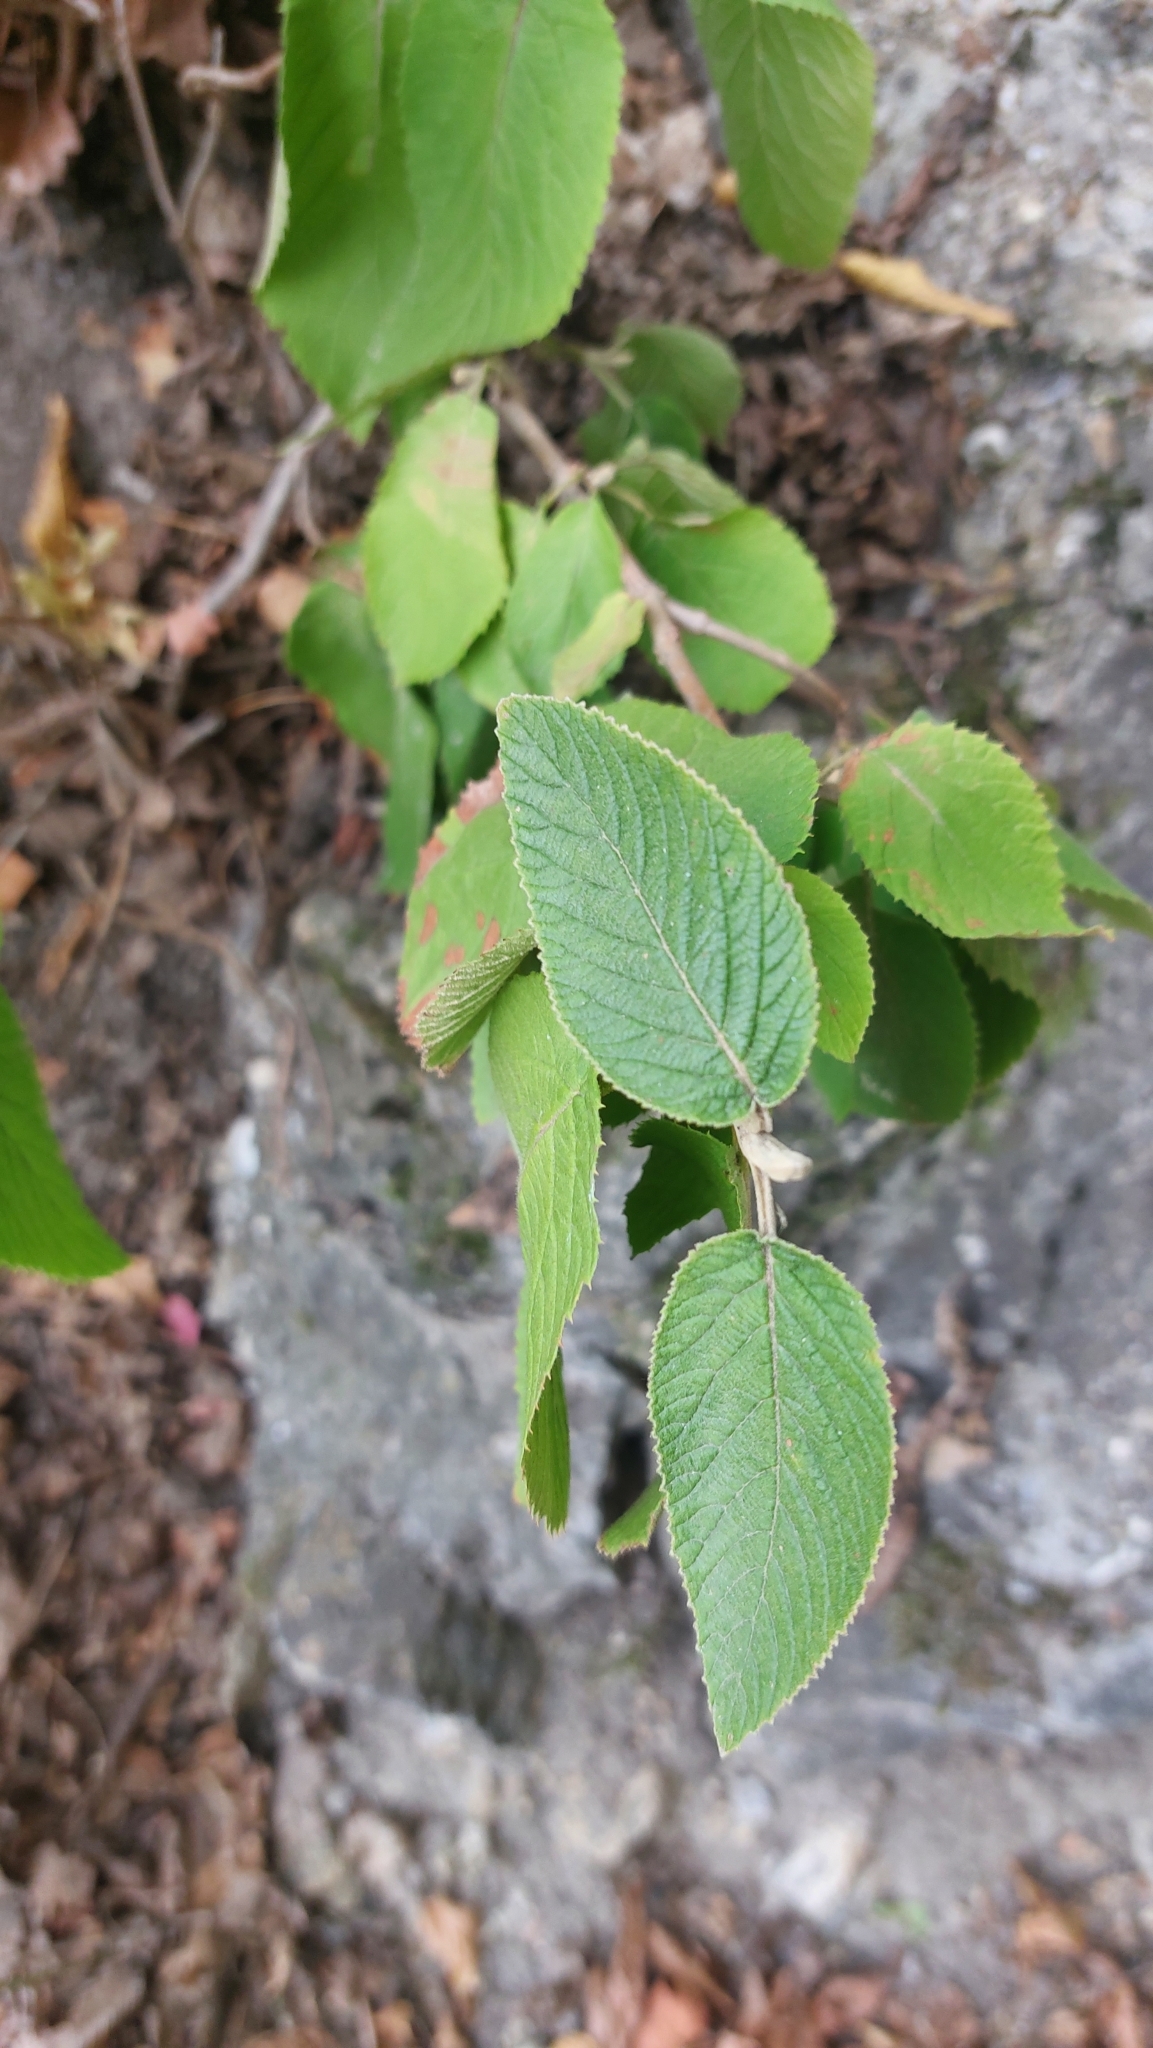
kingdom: Plantae
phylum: Tracheophyta
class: Magnoliopsida
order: Dipsacales
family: Viburnaceae
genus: Viburnum
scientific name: Viburnum lantana
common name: Wayfaring tree
